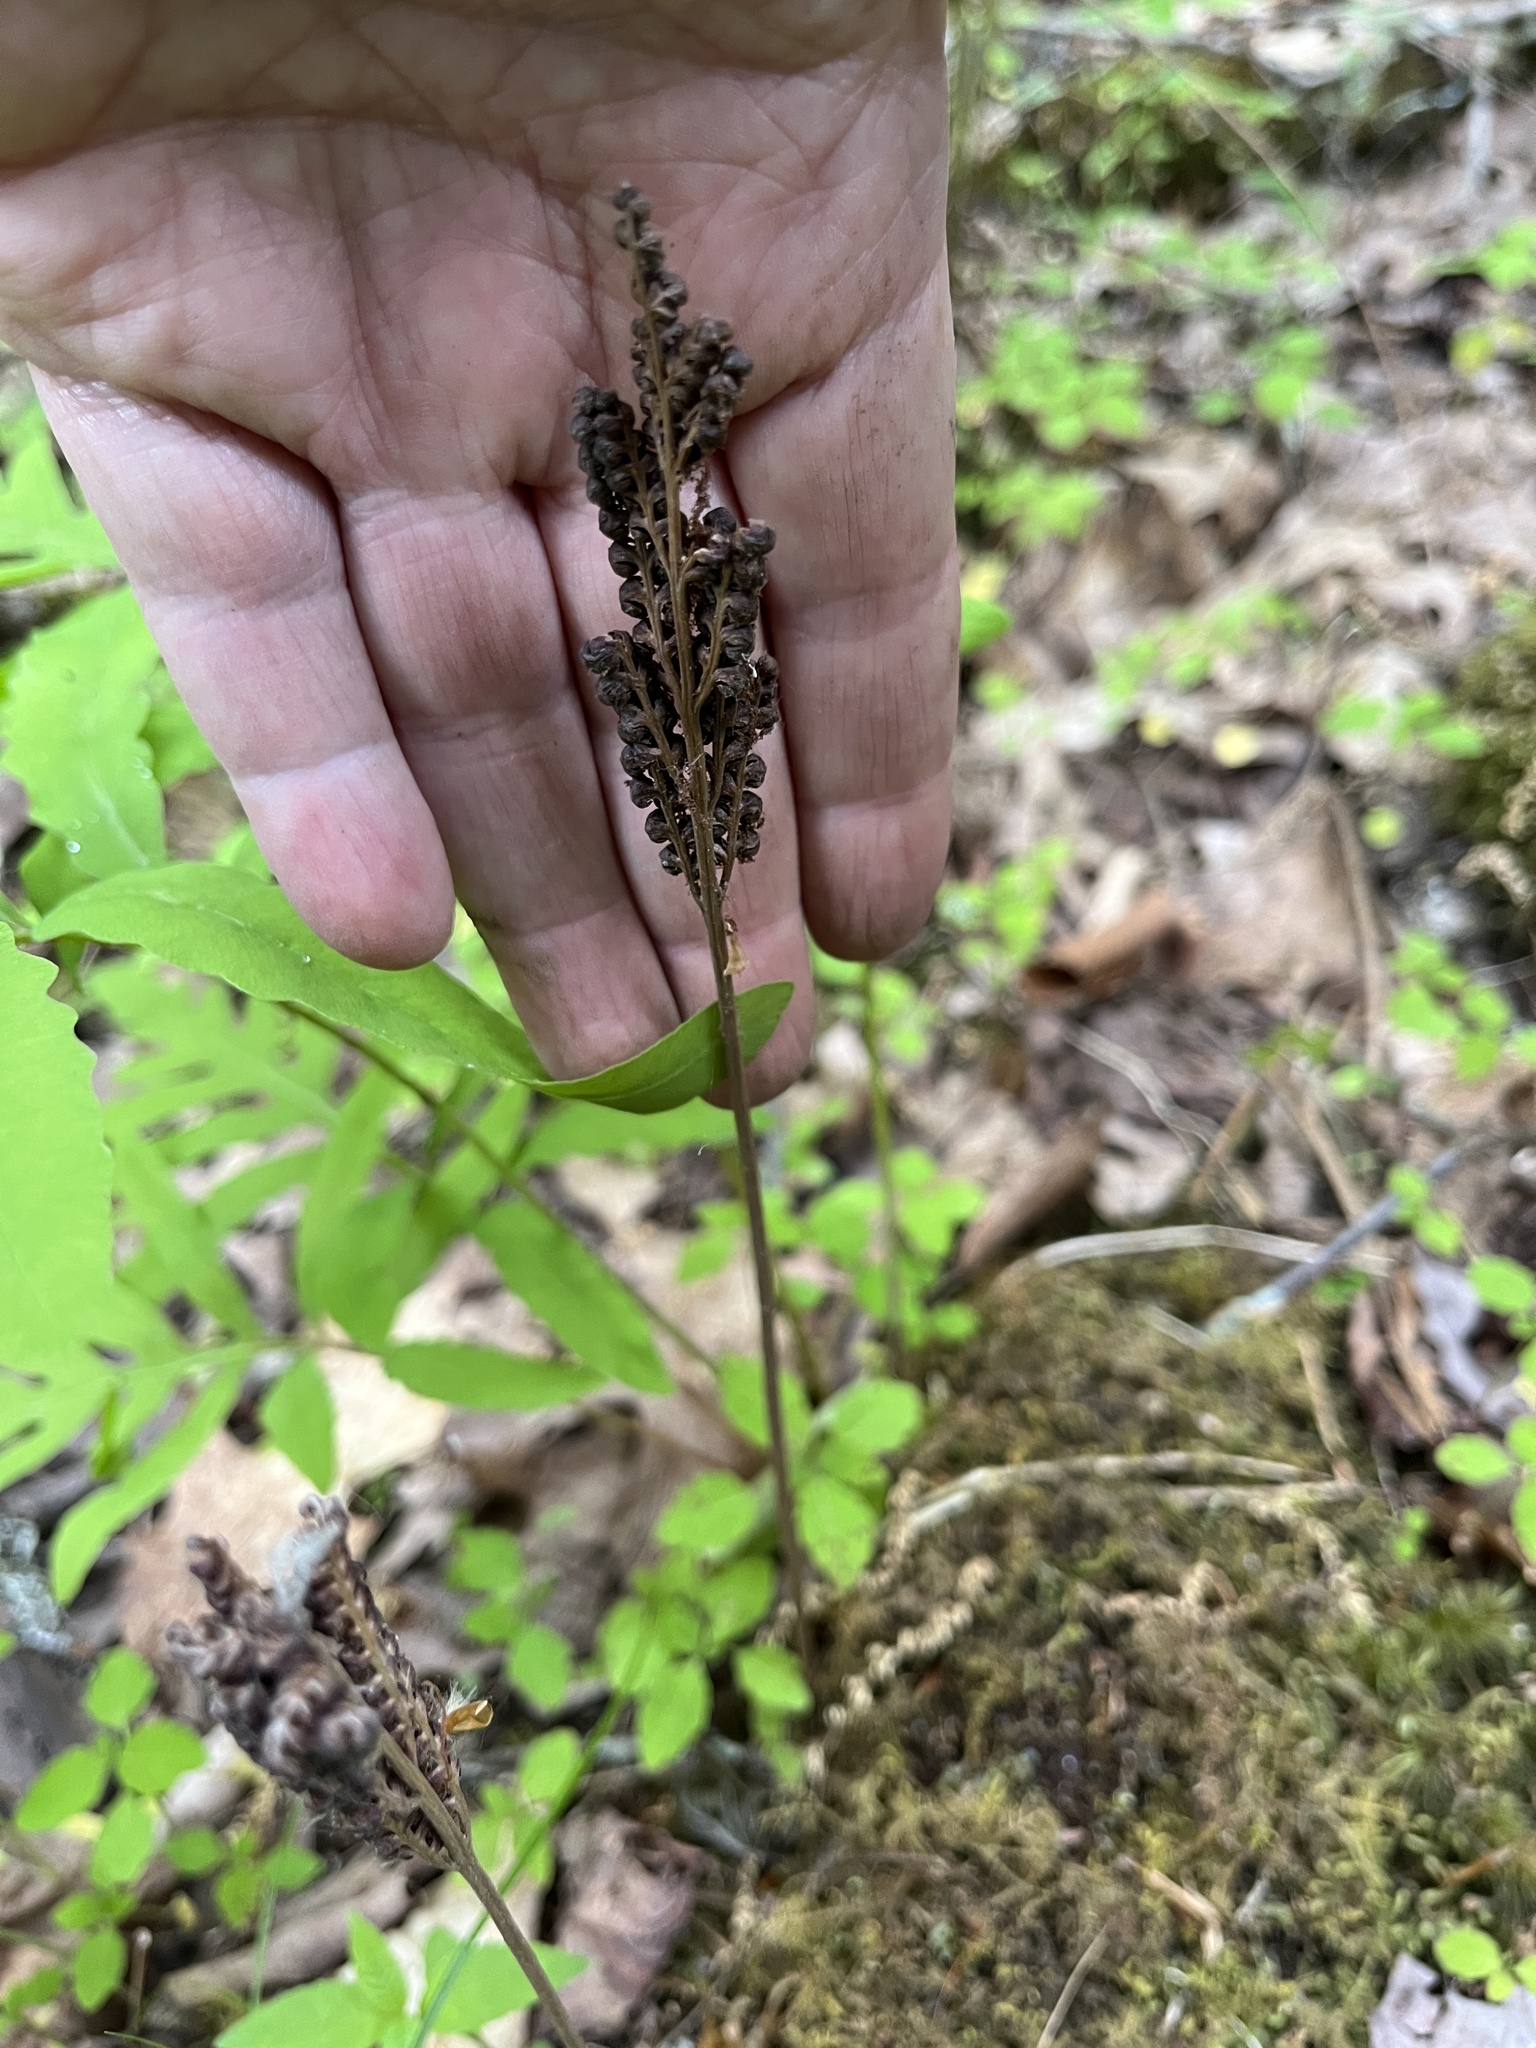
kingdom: Plantae
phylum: Tracheophyta
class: Polypodiopsida
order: Polypodiales
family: Onocleaceae
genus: Onoclea
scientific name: Onoclea sensibilis
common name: Sensitive fern
